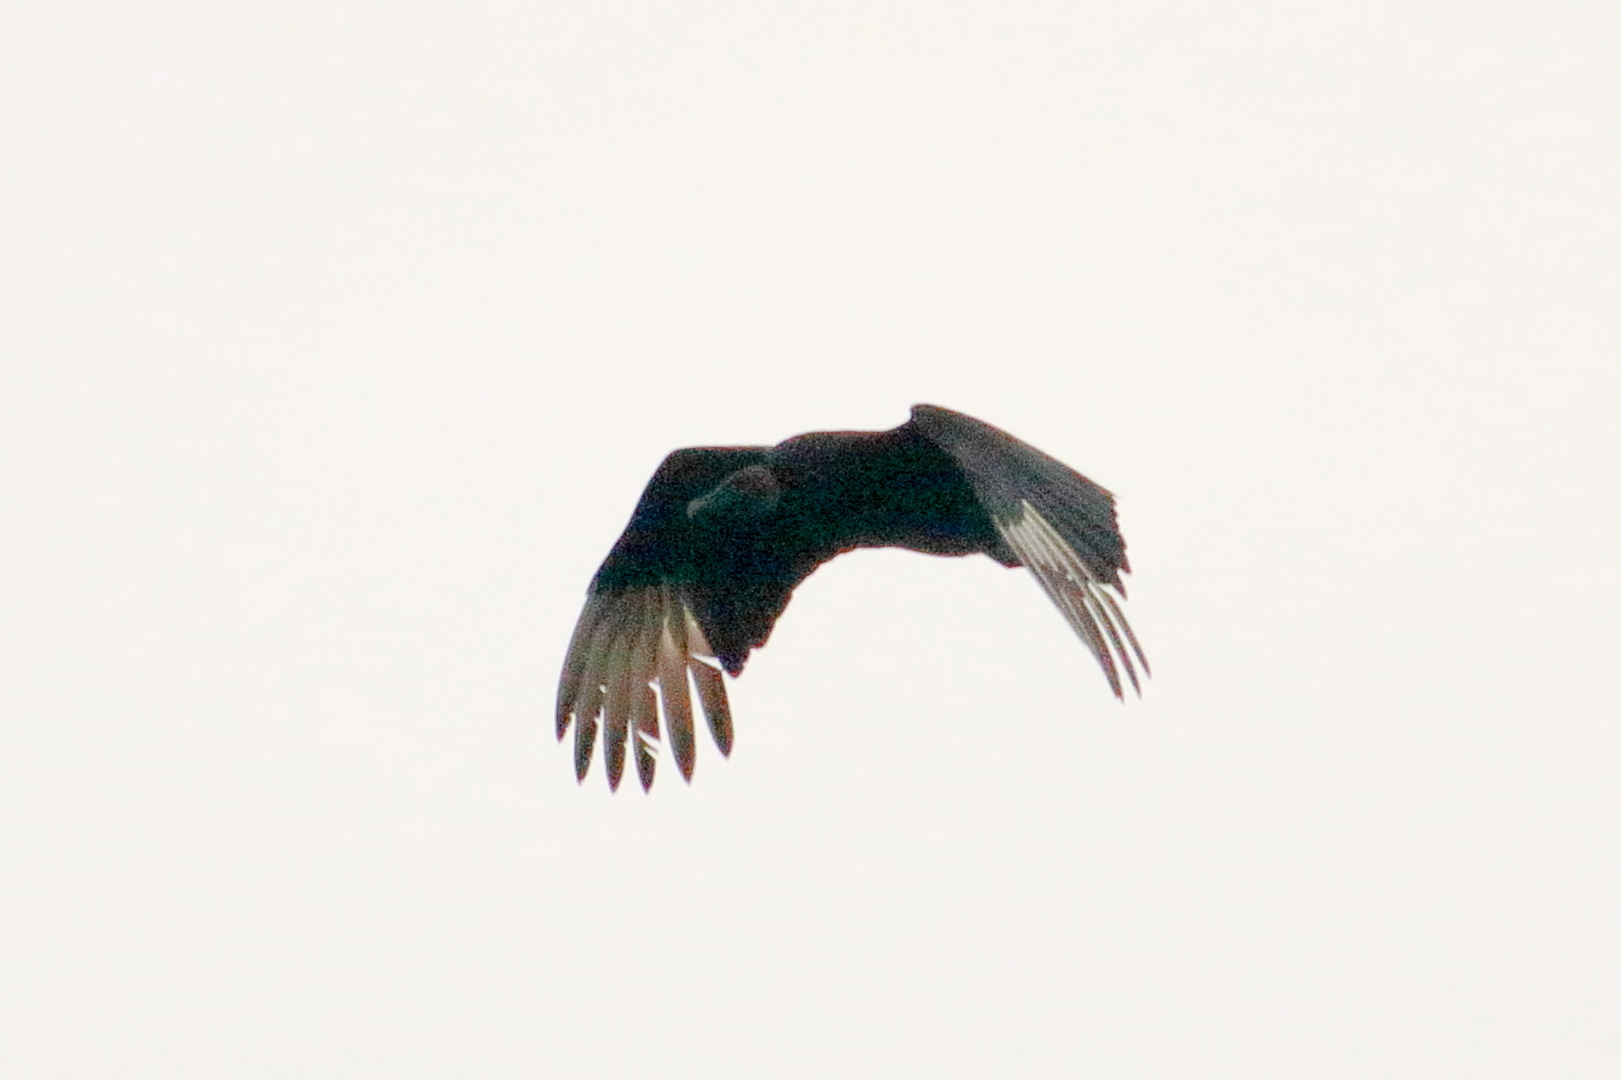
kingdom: Animalia
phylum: Chordata
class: Aves
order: Accipitriformes
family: Cathartidae
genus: Coragyps
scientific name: Coragyps atratus
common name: Black vulture
